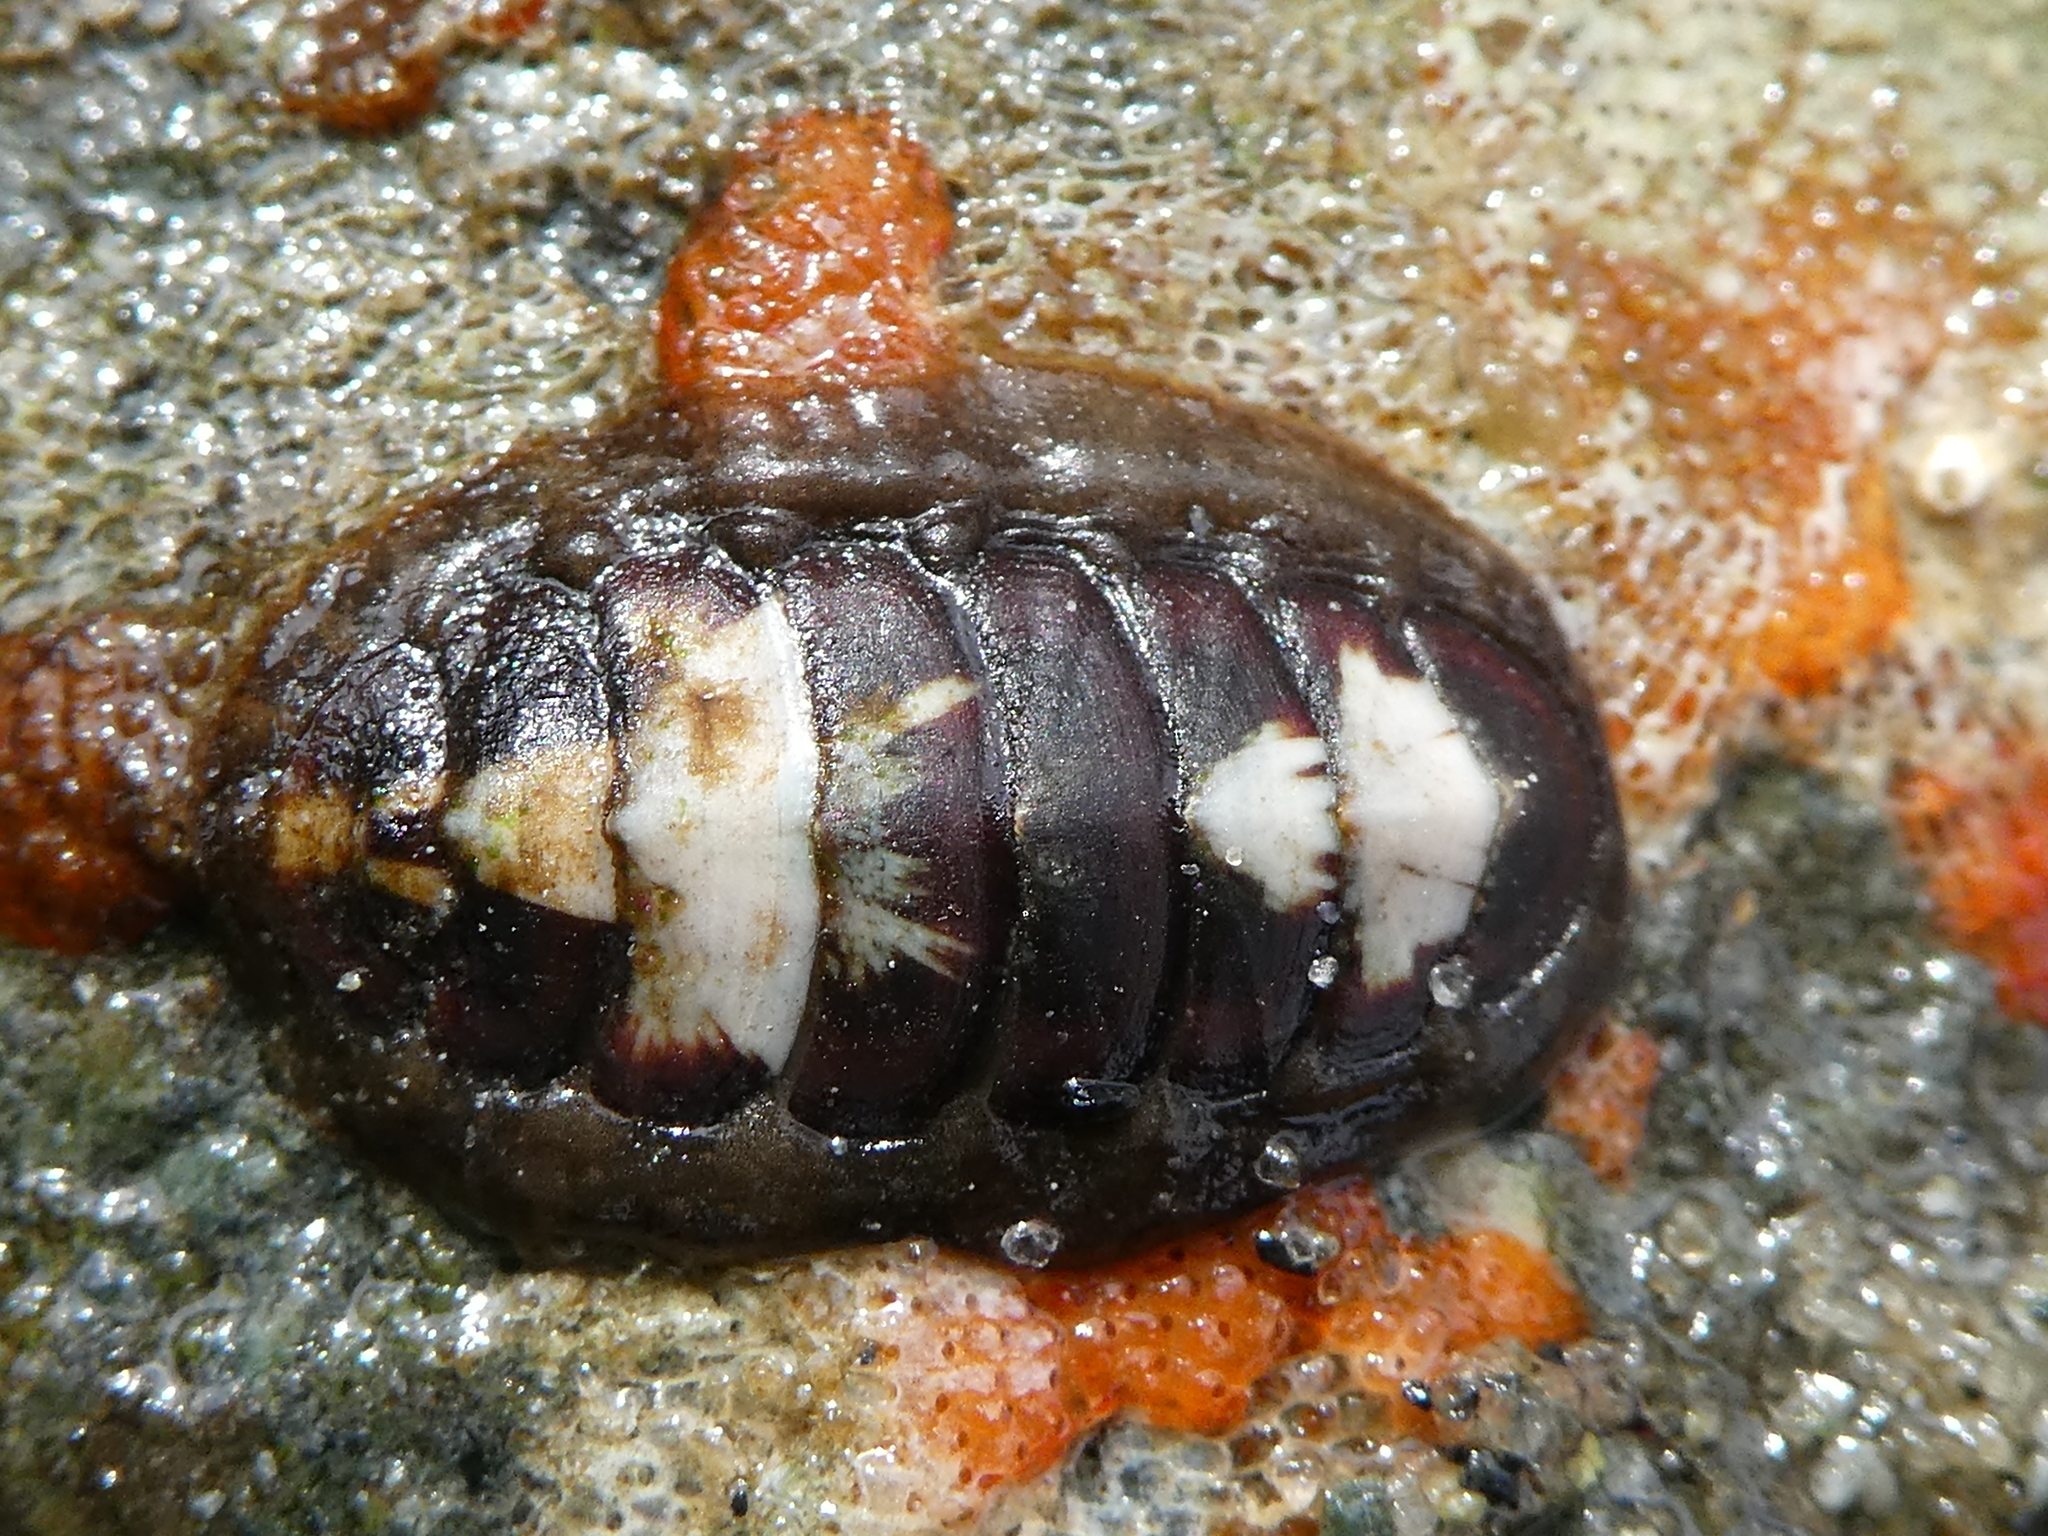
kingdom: Animalia
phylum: Mollusca
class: Polyplacophora
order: Chitonida
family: Tonicellidae
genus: Cyanoplax
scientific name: Cyanoplax fernaldi
